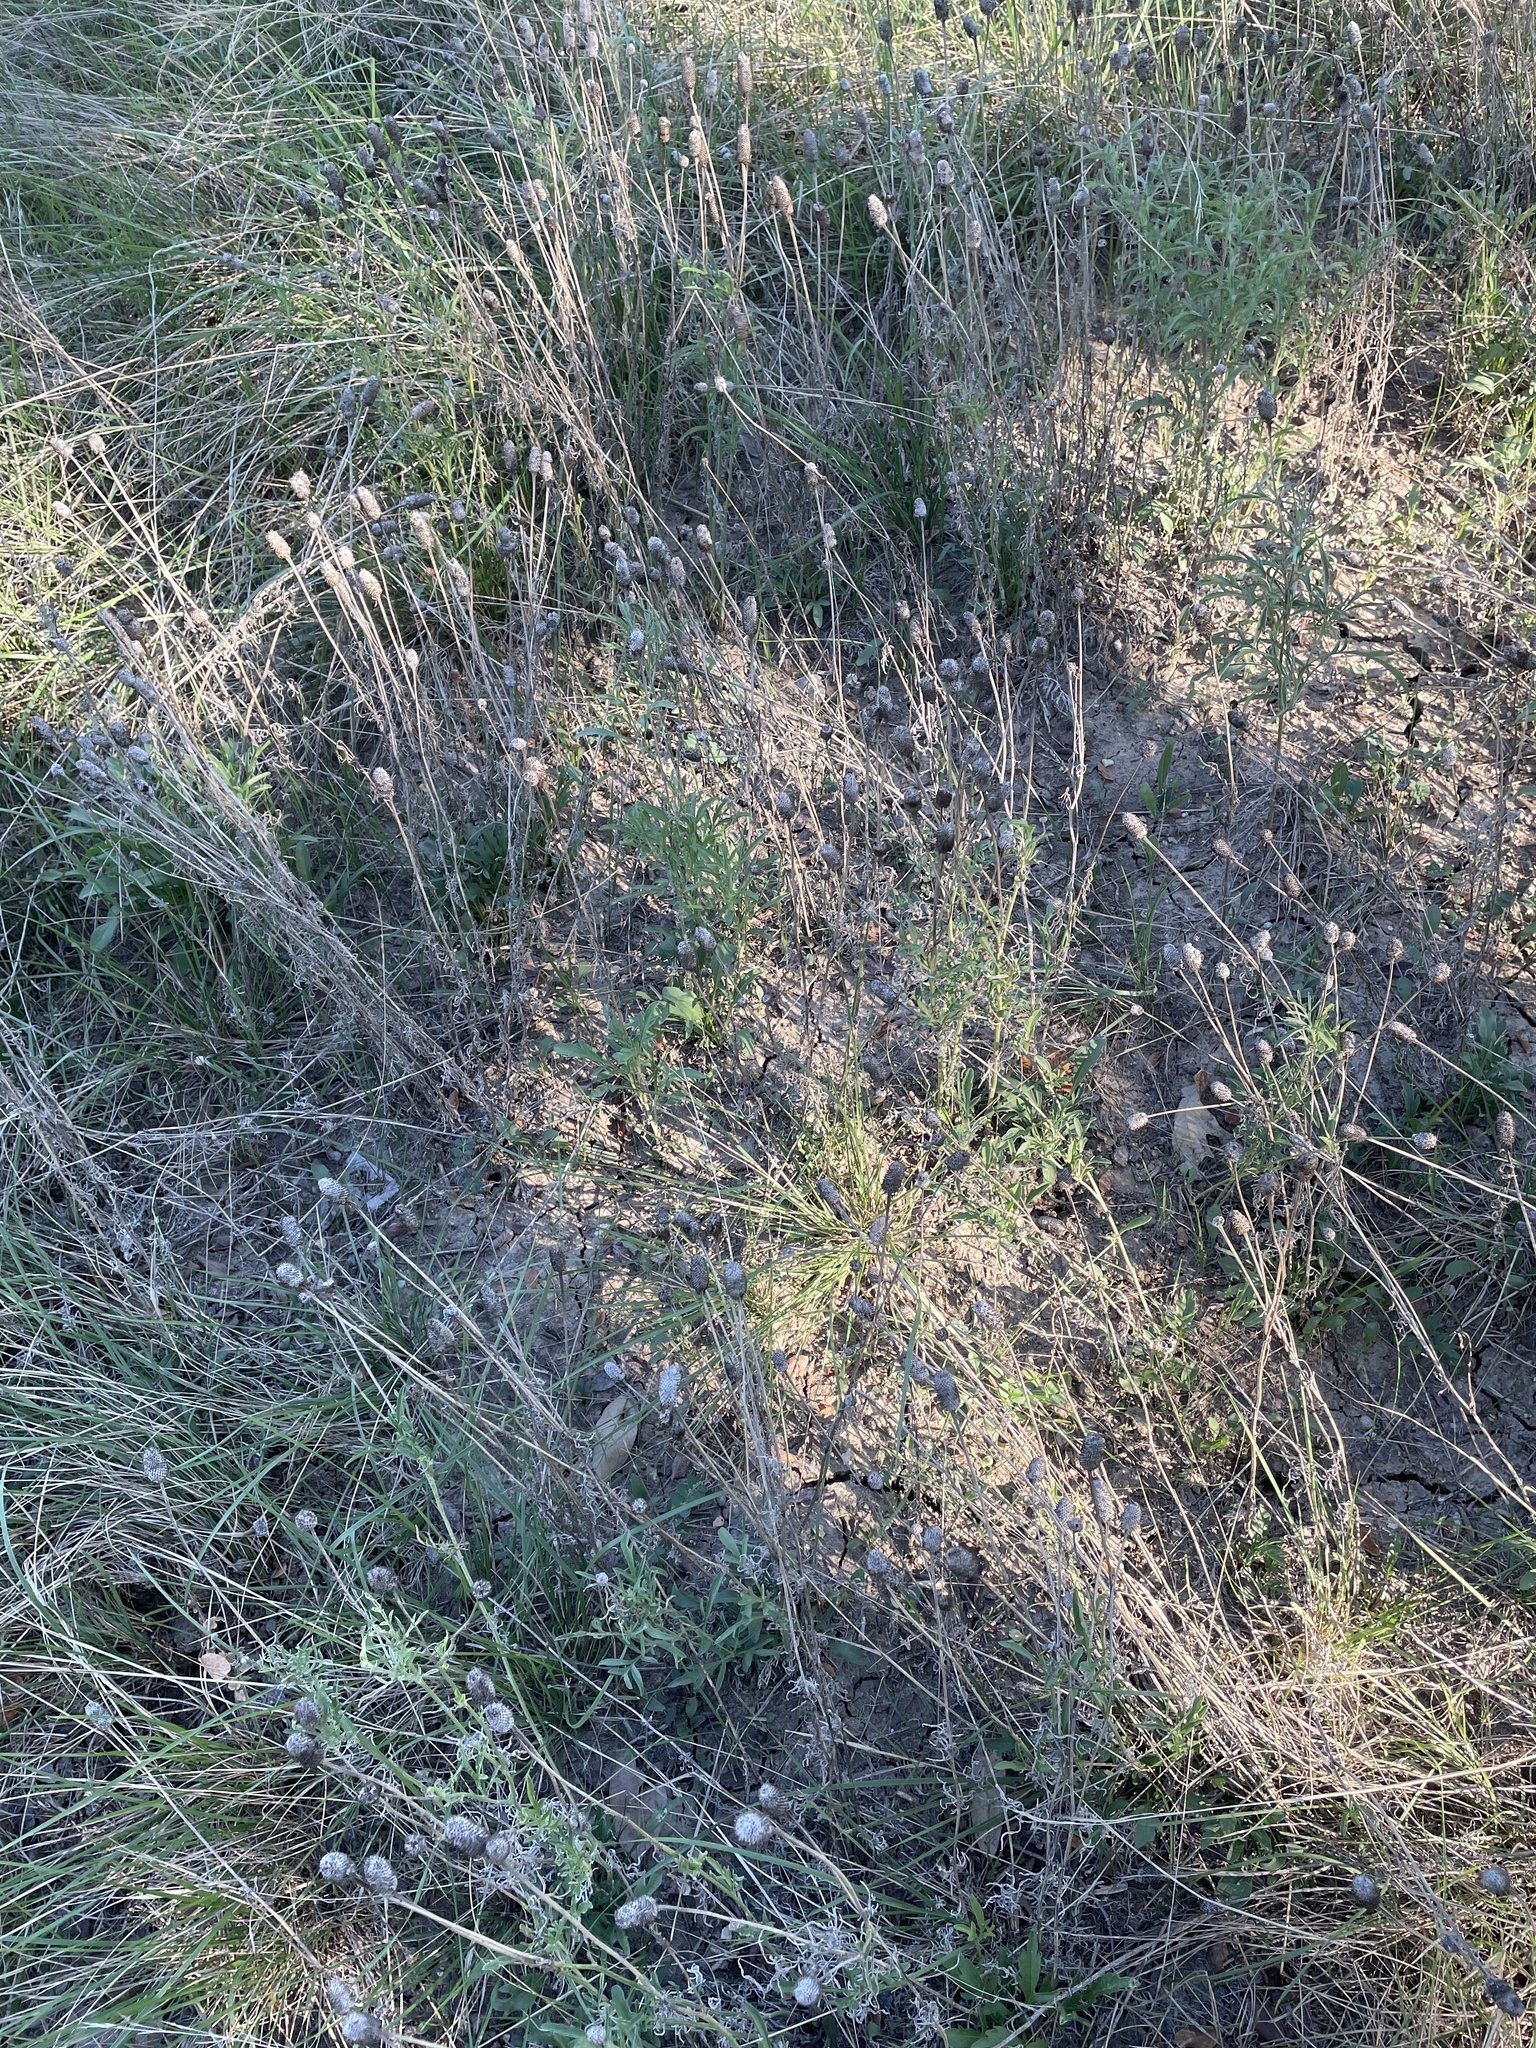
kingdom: Plantae
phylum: Tracheophyta
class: Magnoliopsida
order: Asterales
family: Asteraceae
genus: Ratibida
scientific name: Ratibida columnifera
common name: Prairie coneflower
